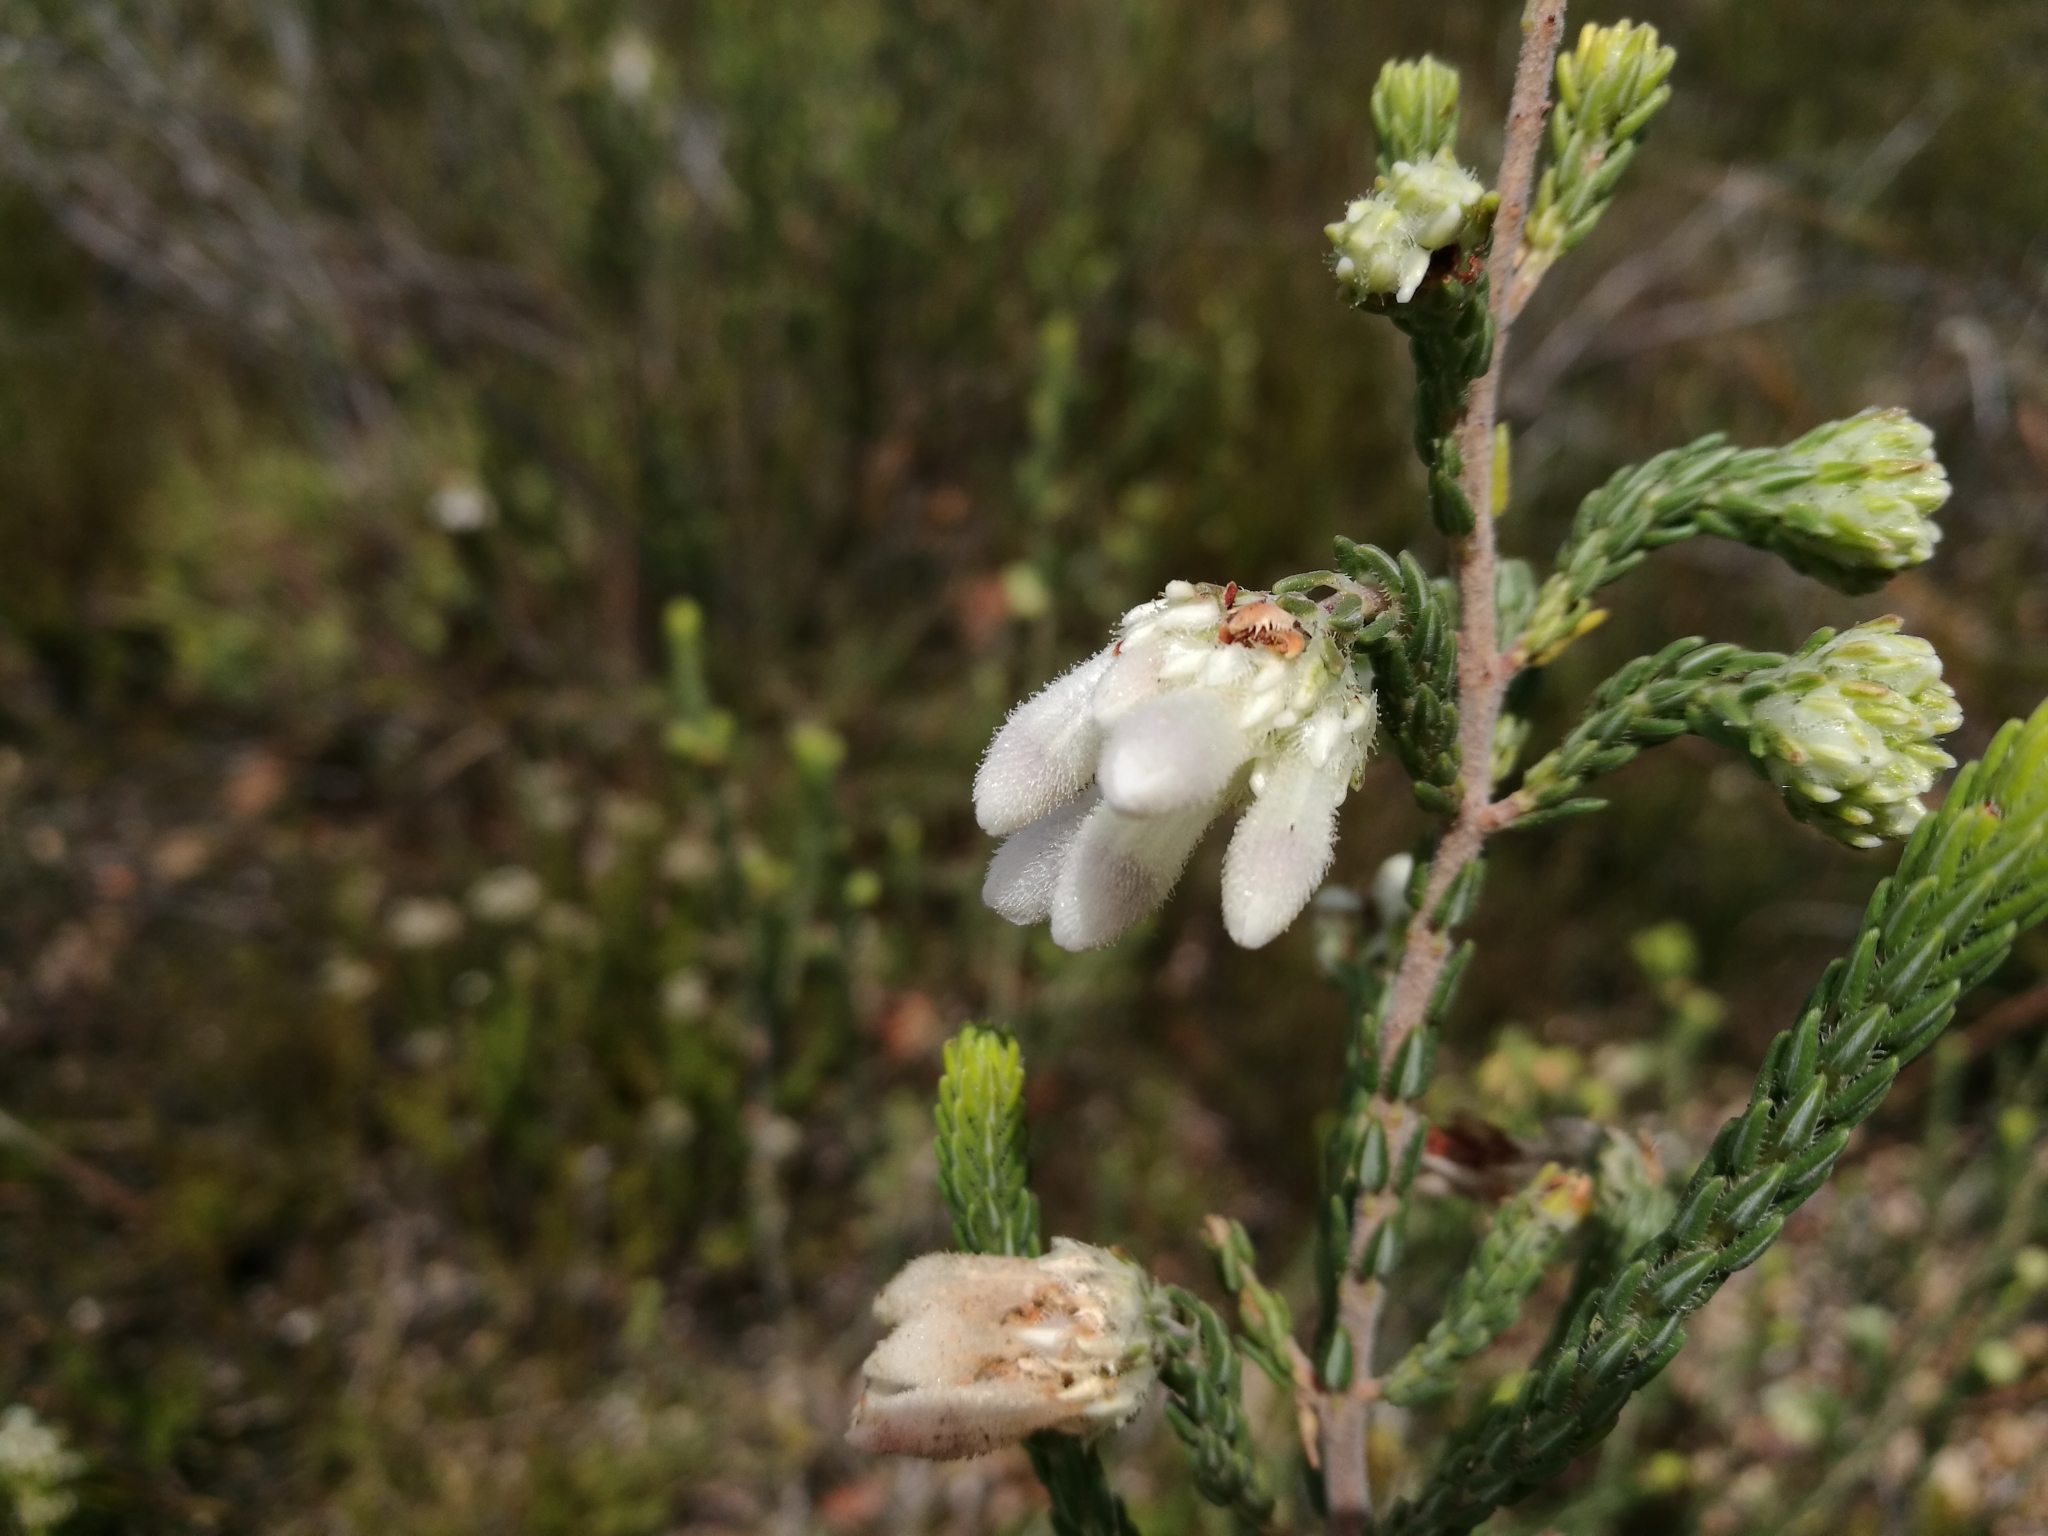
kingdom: Plantae
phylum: Tracheophyta
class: Magnoliopsida
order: Ericales
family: Ericaceae
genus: Erica
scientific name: Erica pectinifolia
